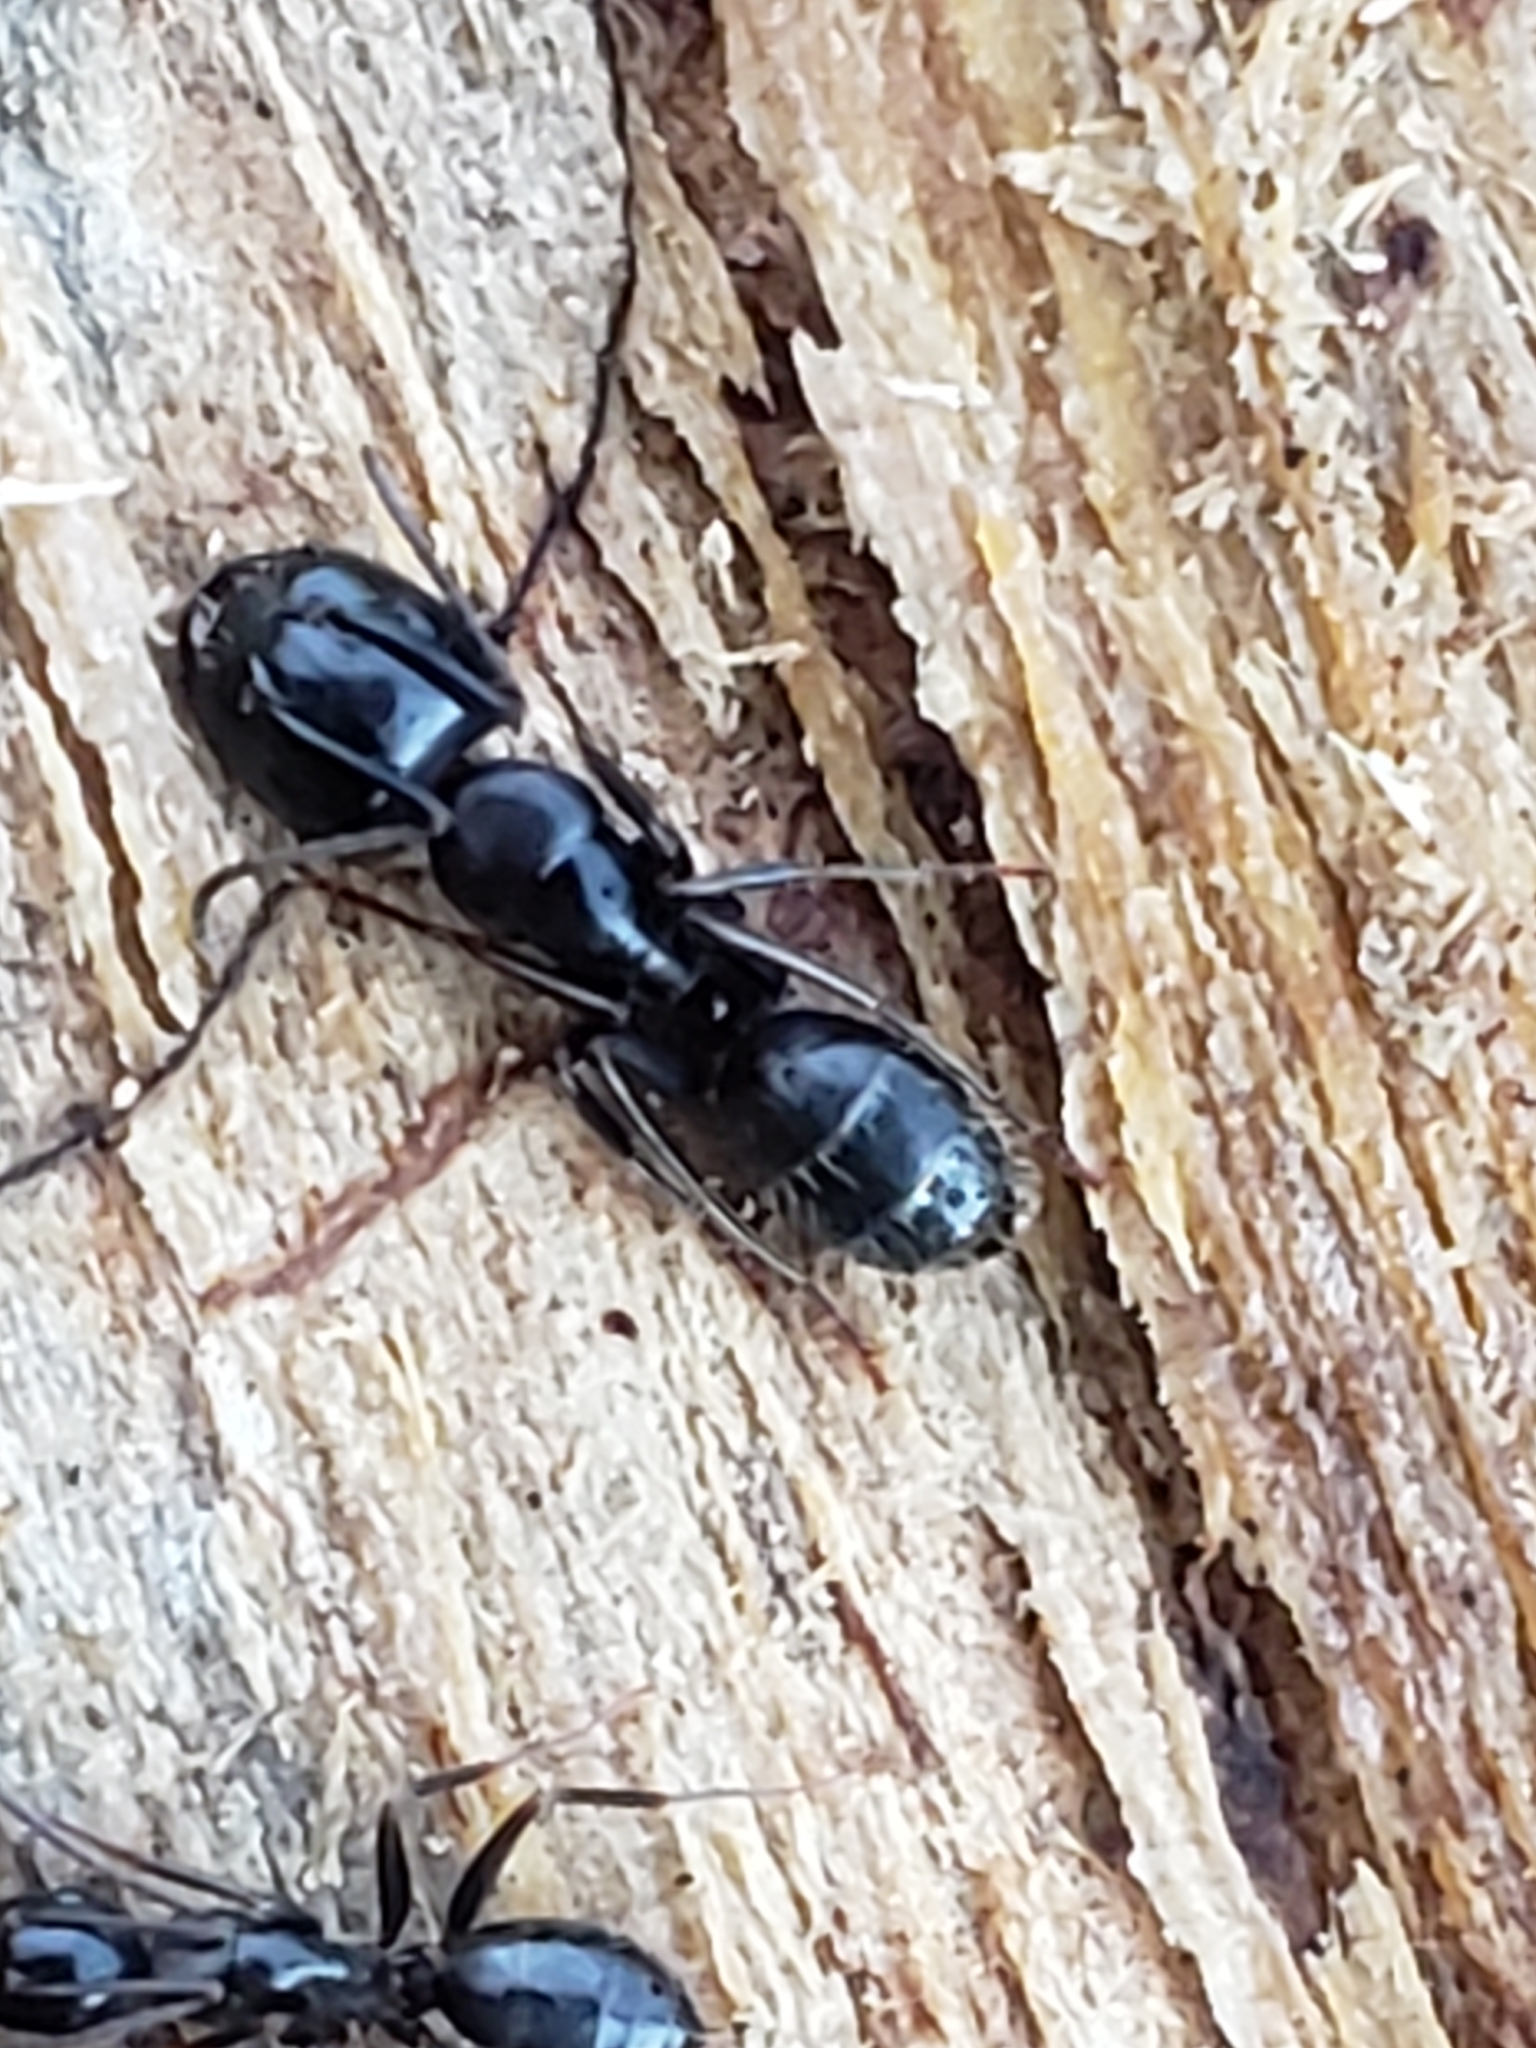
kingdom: Animalia
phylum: Arthropoda
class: Insecta
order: Hymenoptera
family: Formicidae
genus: Camponotus
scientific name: Camponotus nearcticus
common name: Smaller carpenter ant
